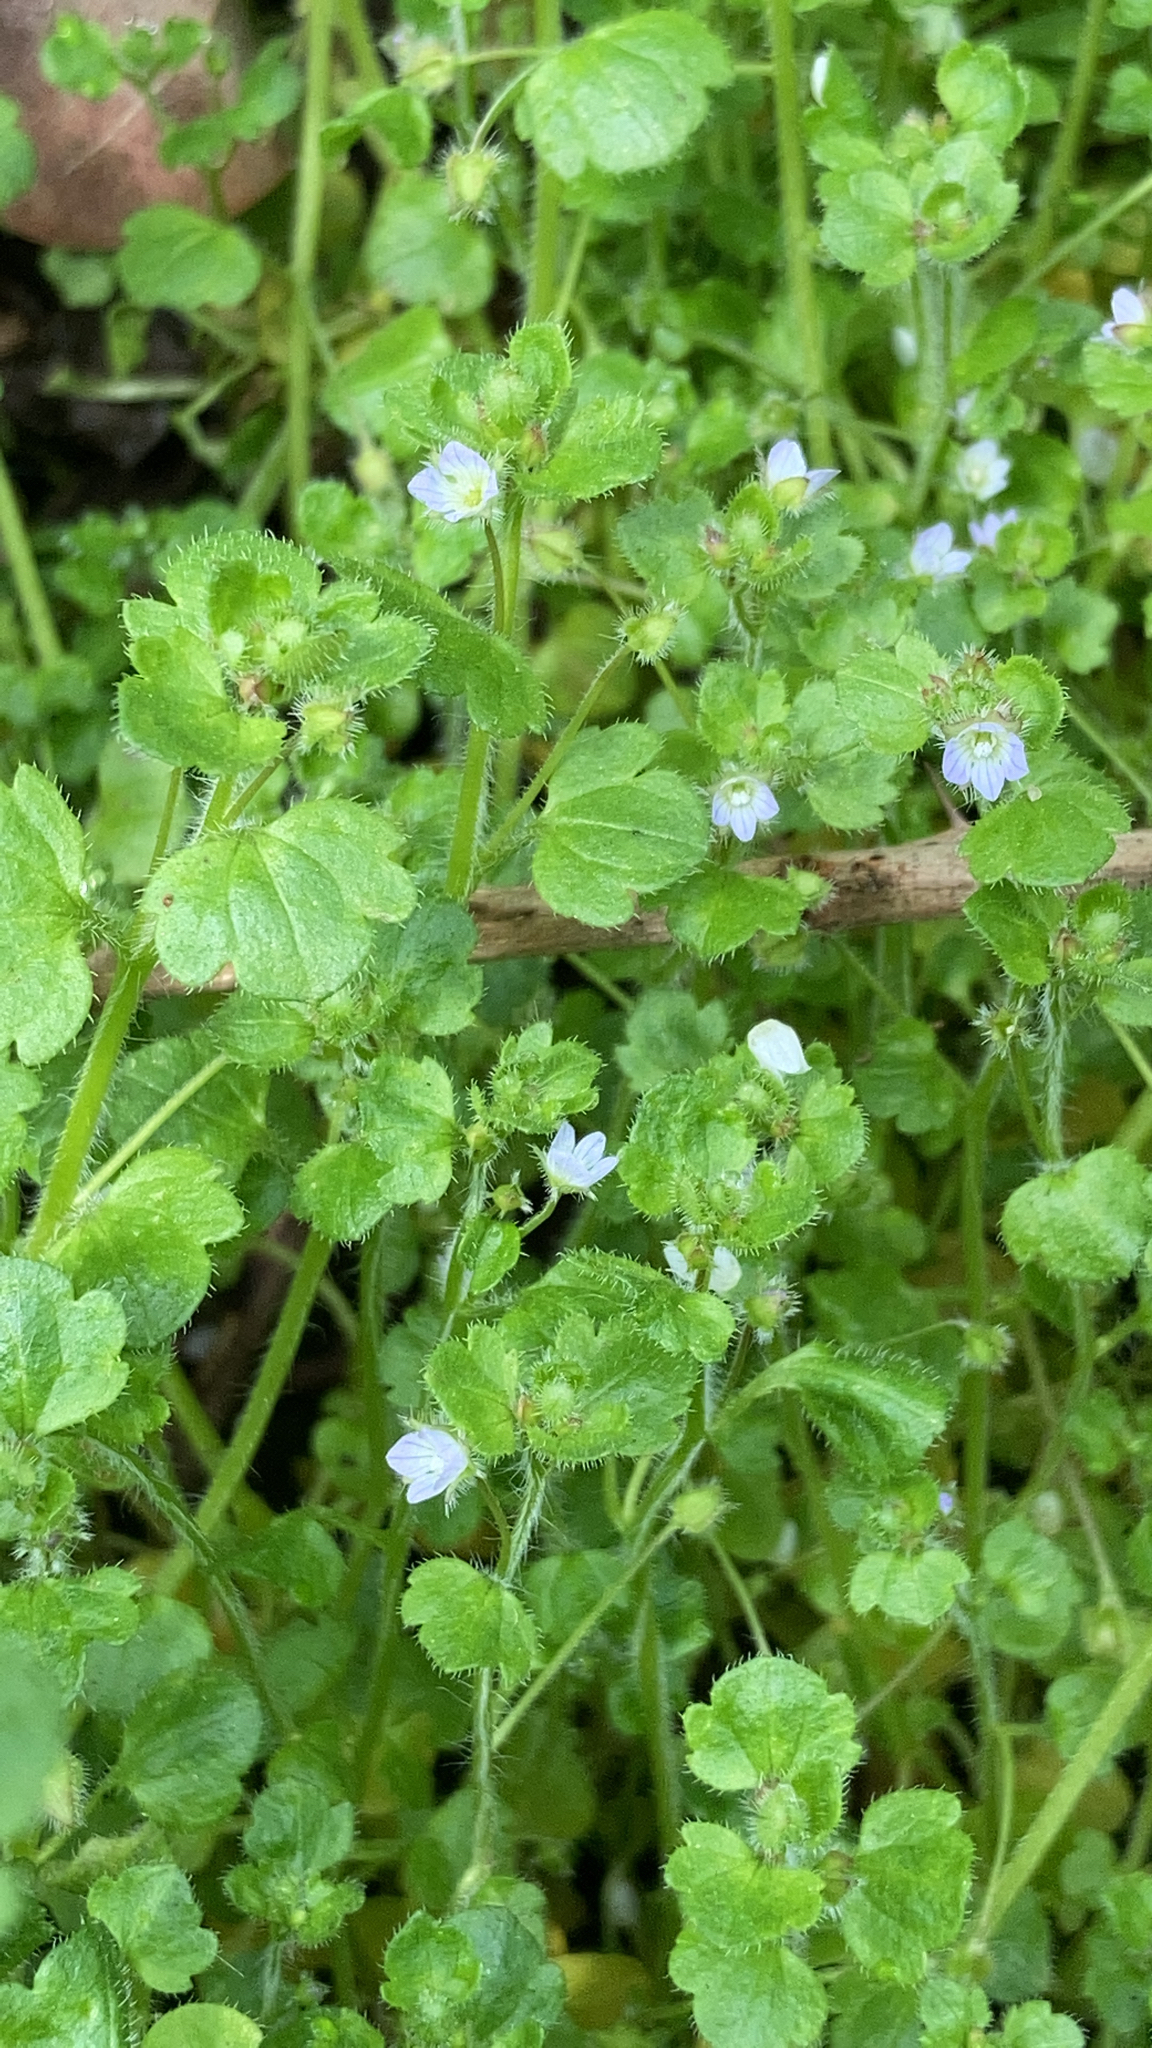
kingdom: Plantae
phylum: Tracheophyta
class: Magnoliopsida
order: Lamiales
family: Plantaginaceae
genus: Veronica
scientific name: Veronica hederifolia
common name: Ivy-leaved speedwell
